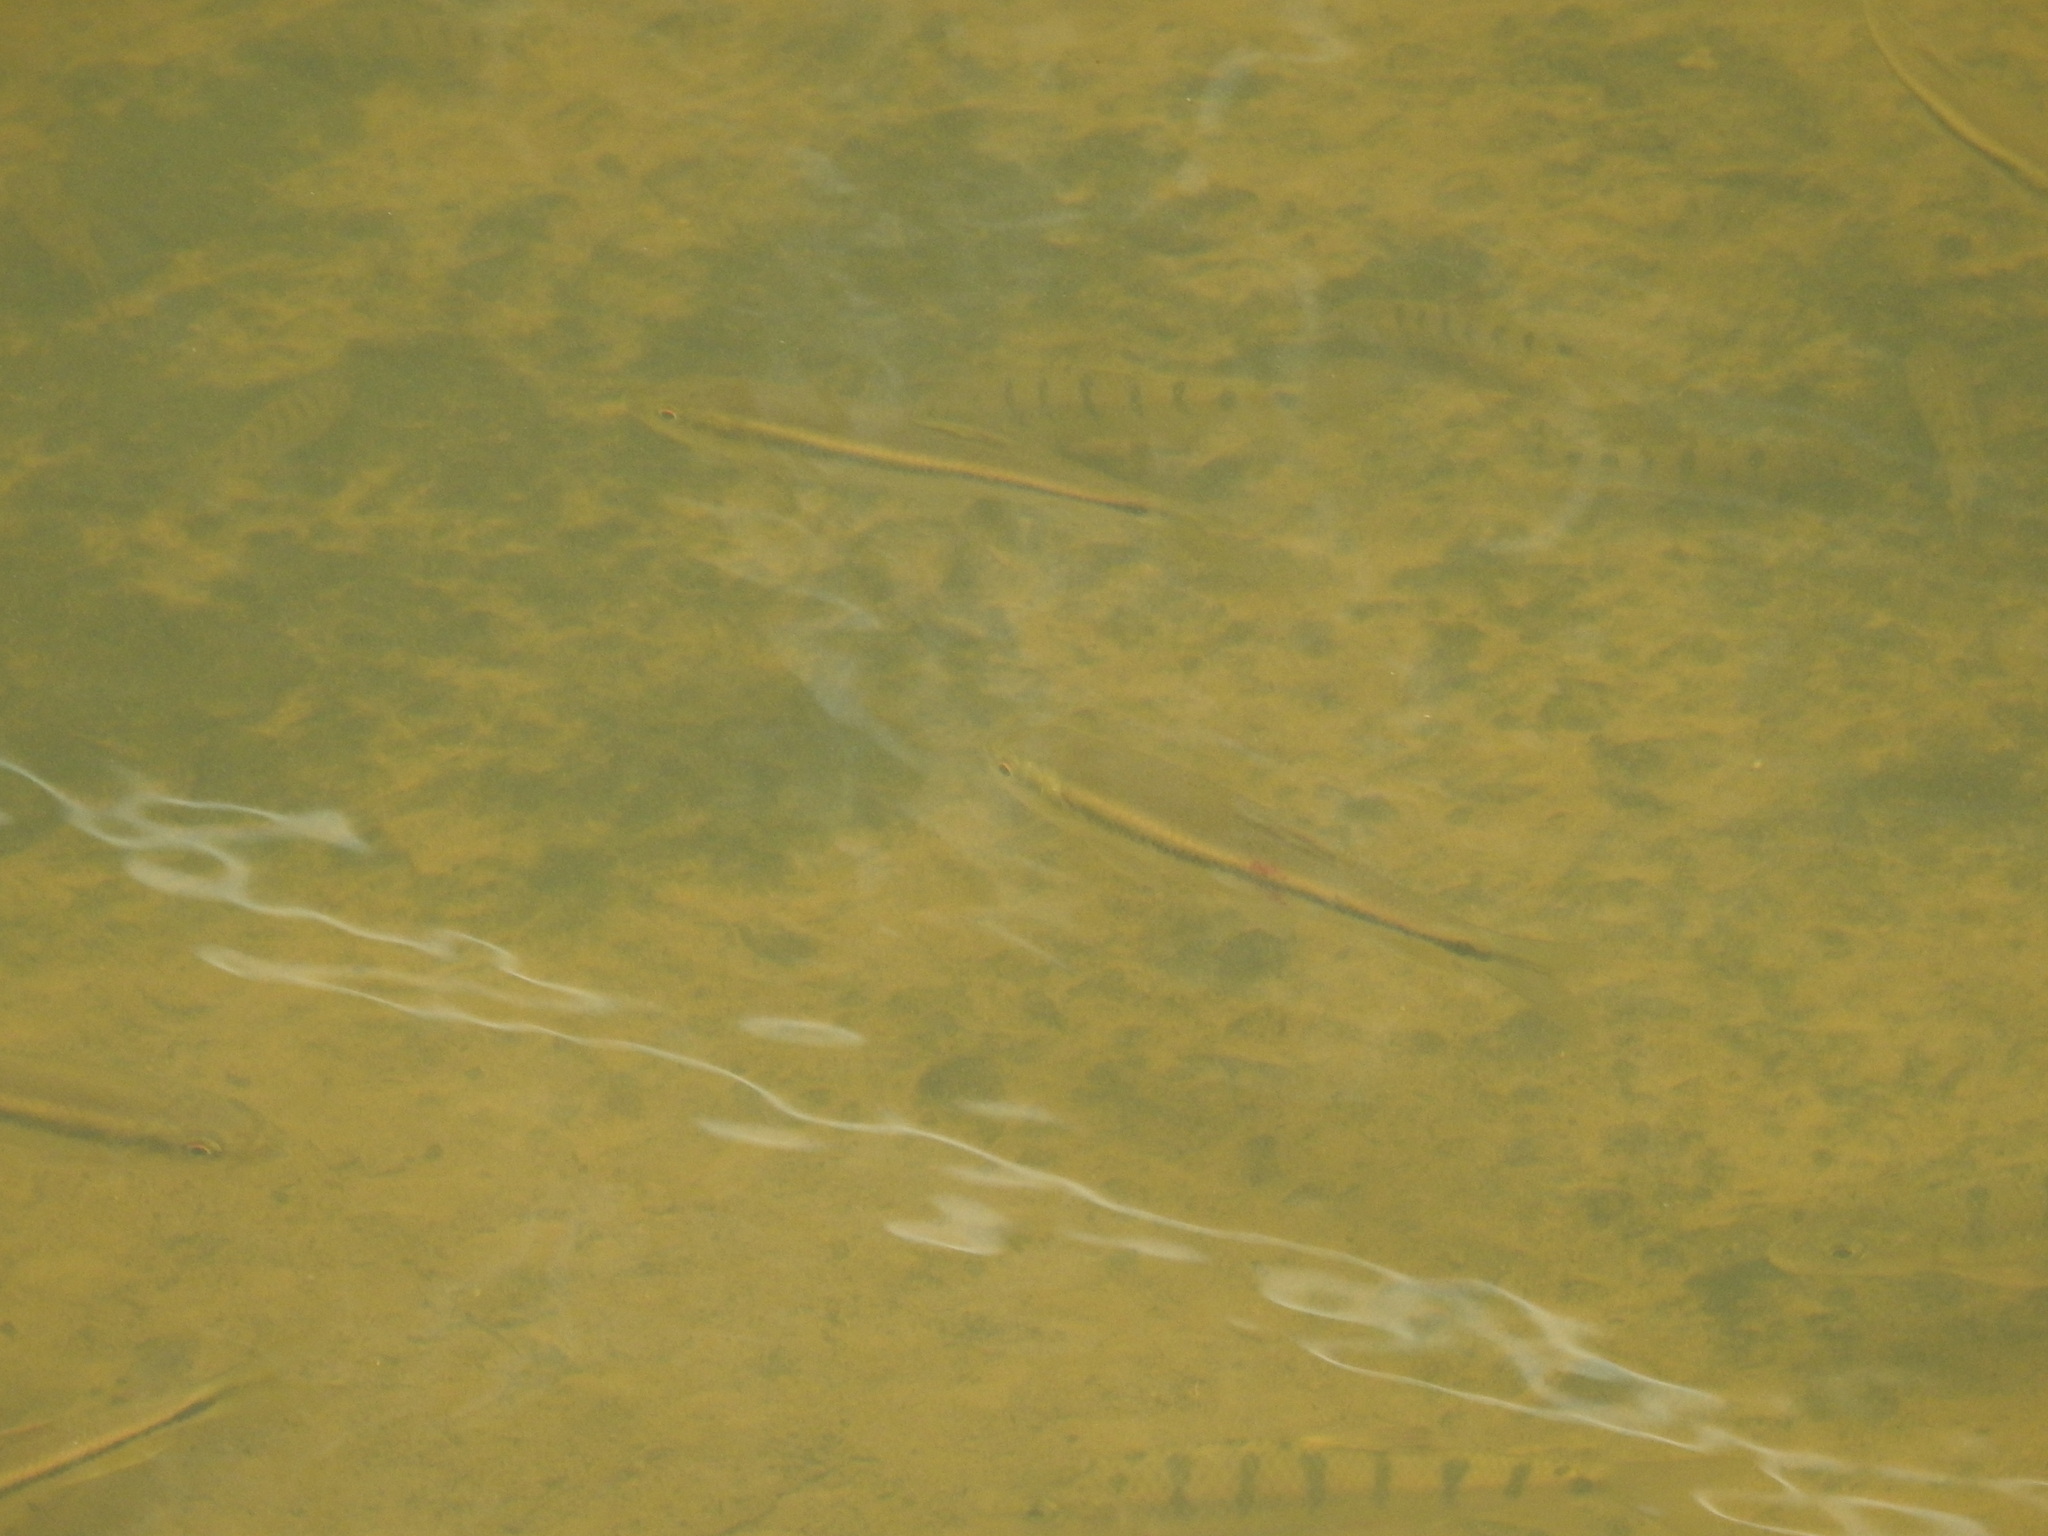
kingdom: Animalia
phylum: Chordata
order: Cypriniformes
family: Cyprinidae
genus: Candidia
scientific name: Candidia barbata
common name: Lake candidus dace
